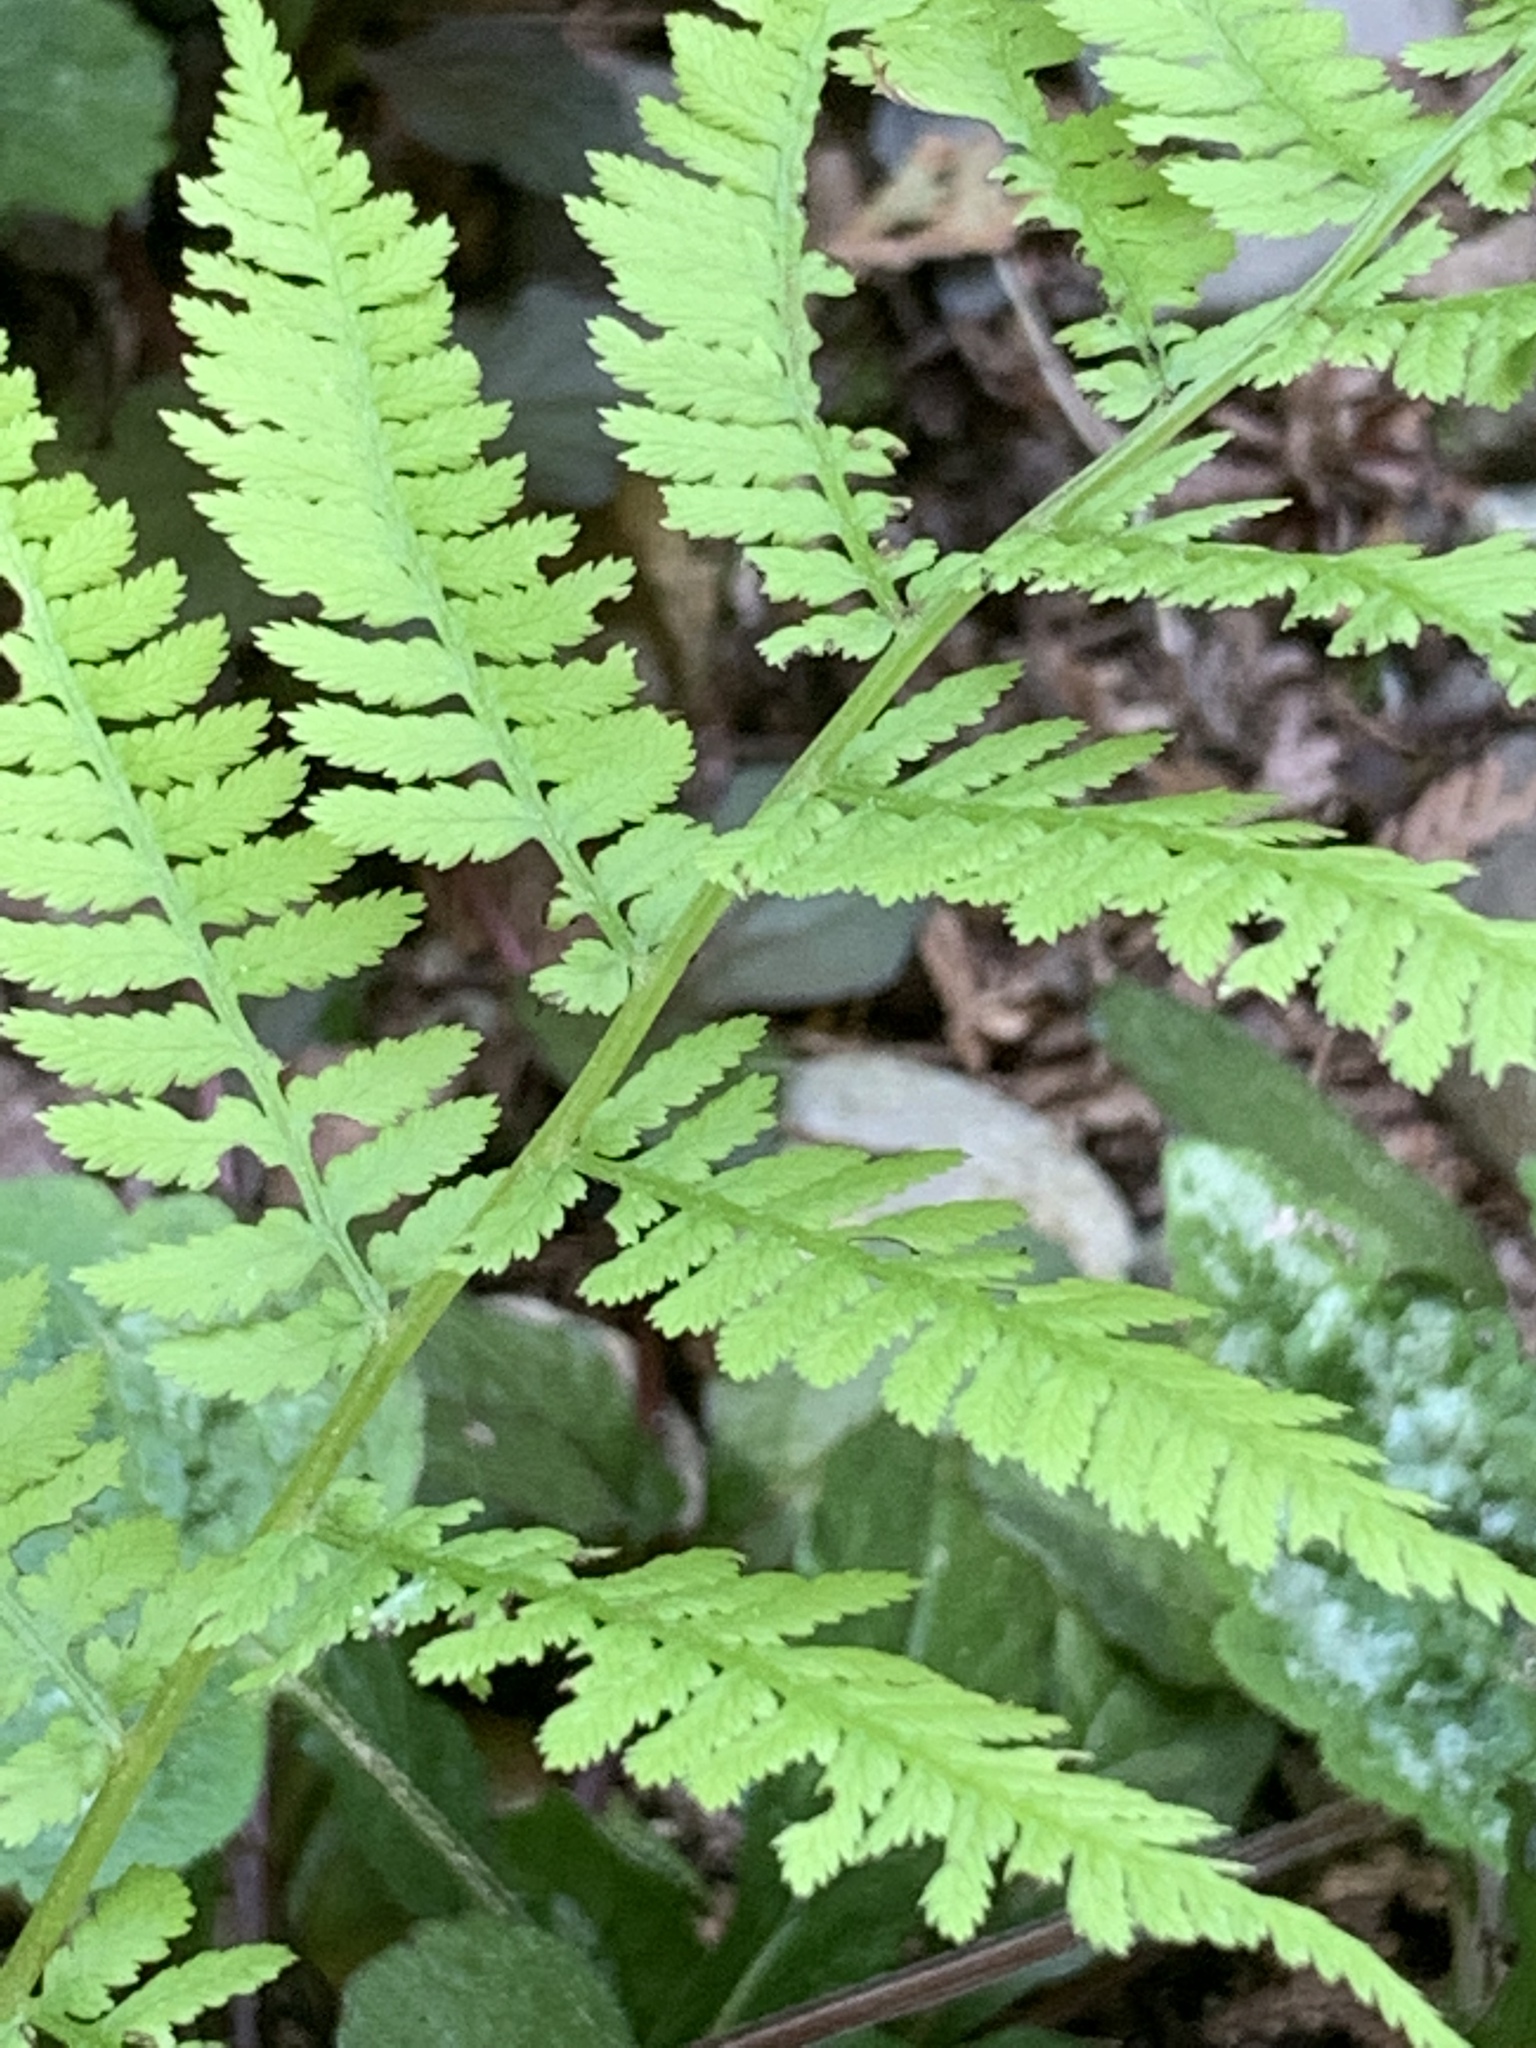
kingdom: Plantae
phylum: Tracheophyta
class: Polypodiopsida
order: Polypodiales
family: Athyriaceae
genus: Athyrium
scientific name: Athyrium angustum
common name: Northern lady fern
